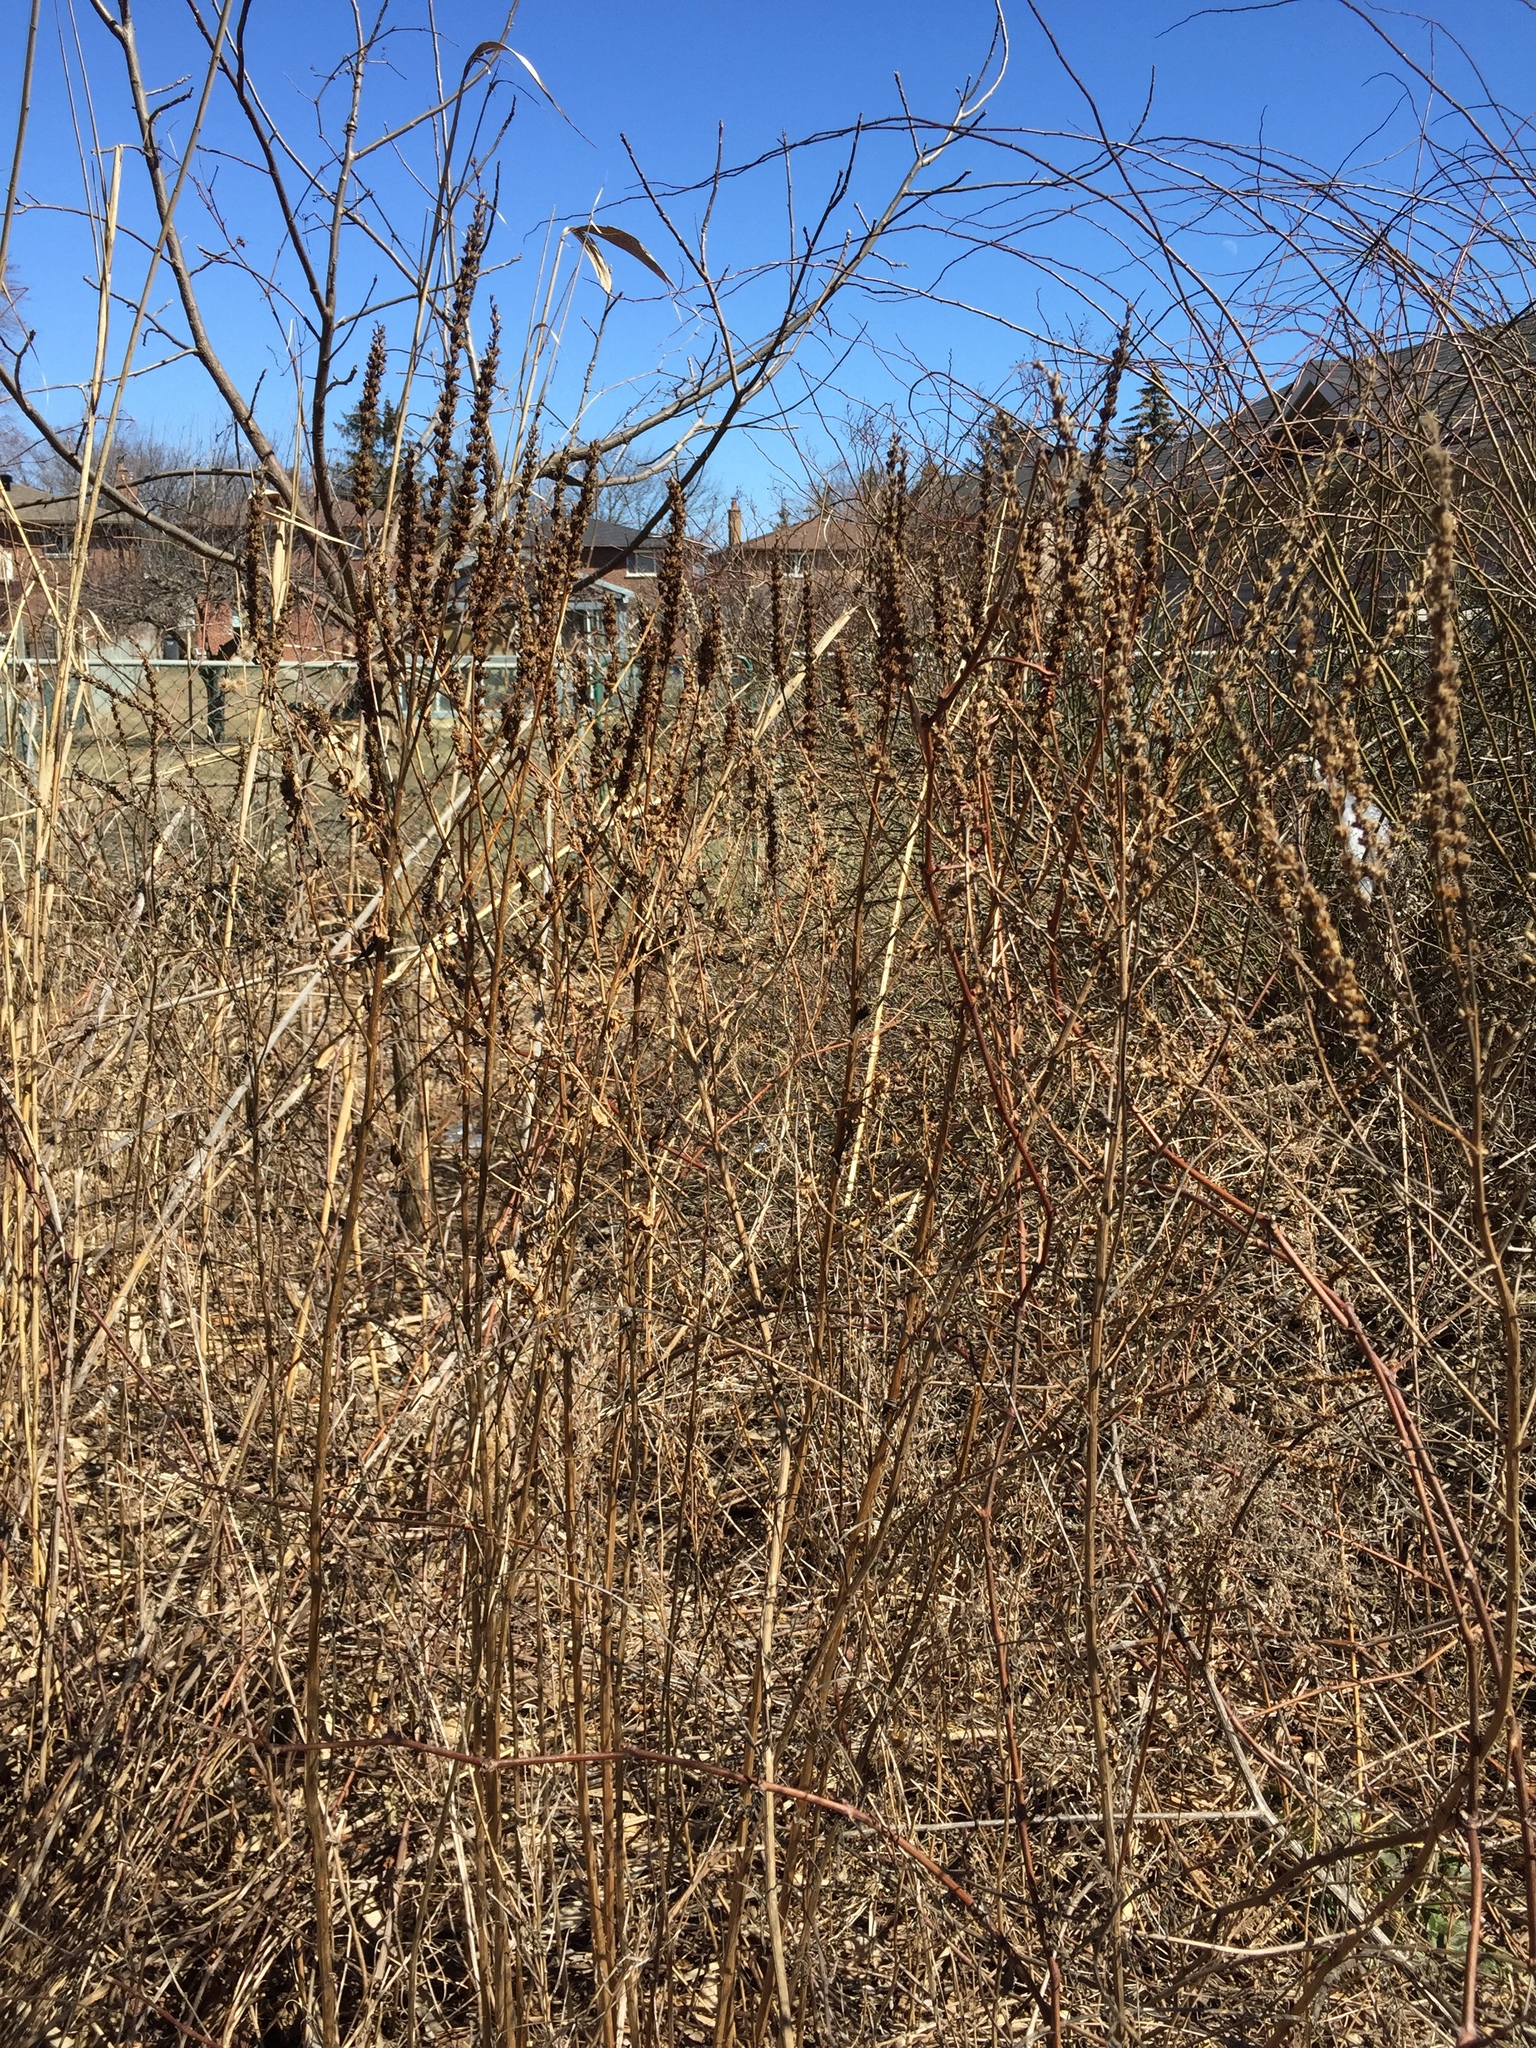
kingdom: Plantae
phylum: Tracheophyta
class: Magnoliopsida
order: Myrtales
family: Lythraceae
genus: Lythrum
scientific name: Lythrum salicaria
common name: Purple loosestrife
